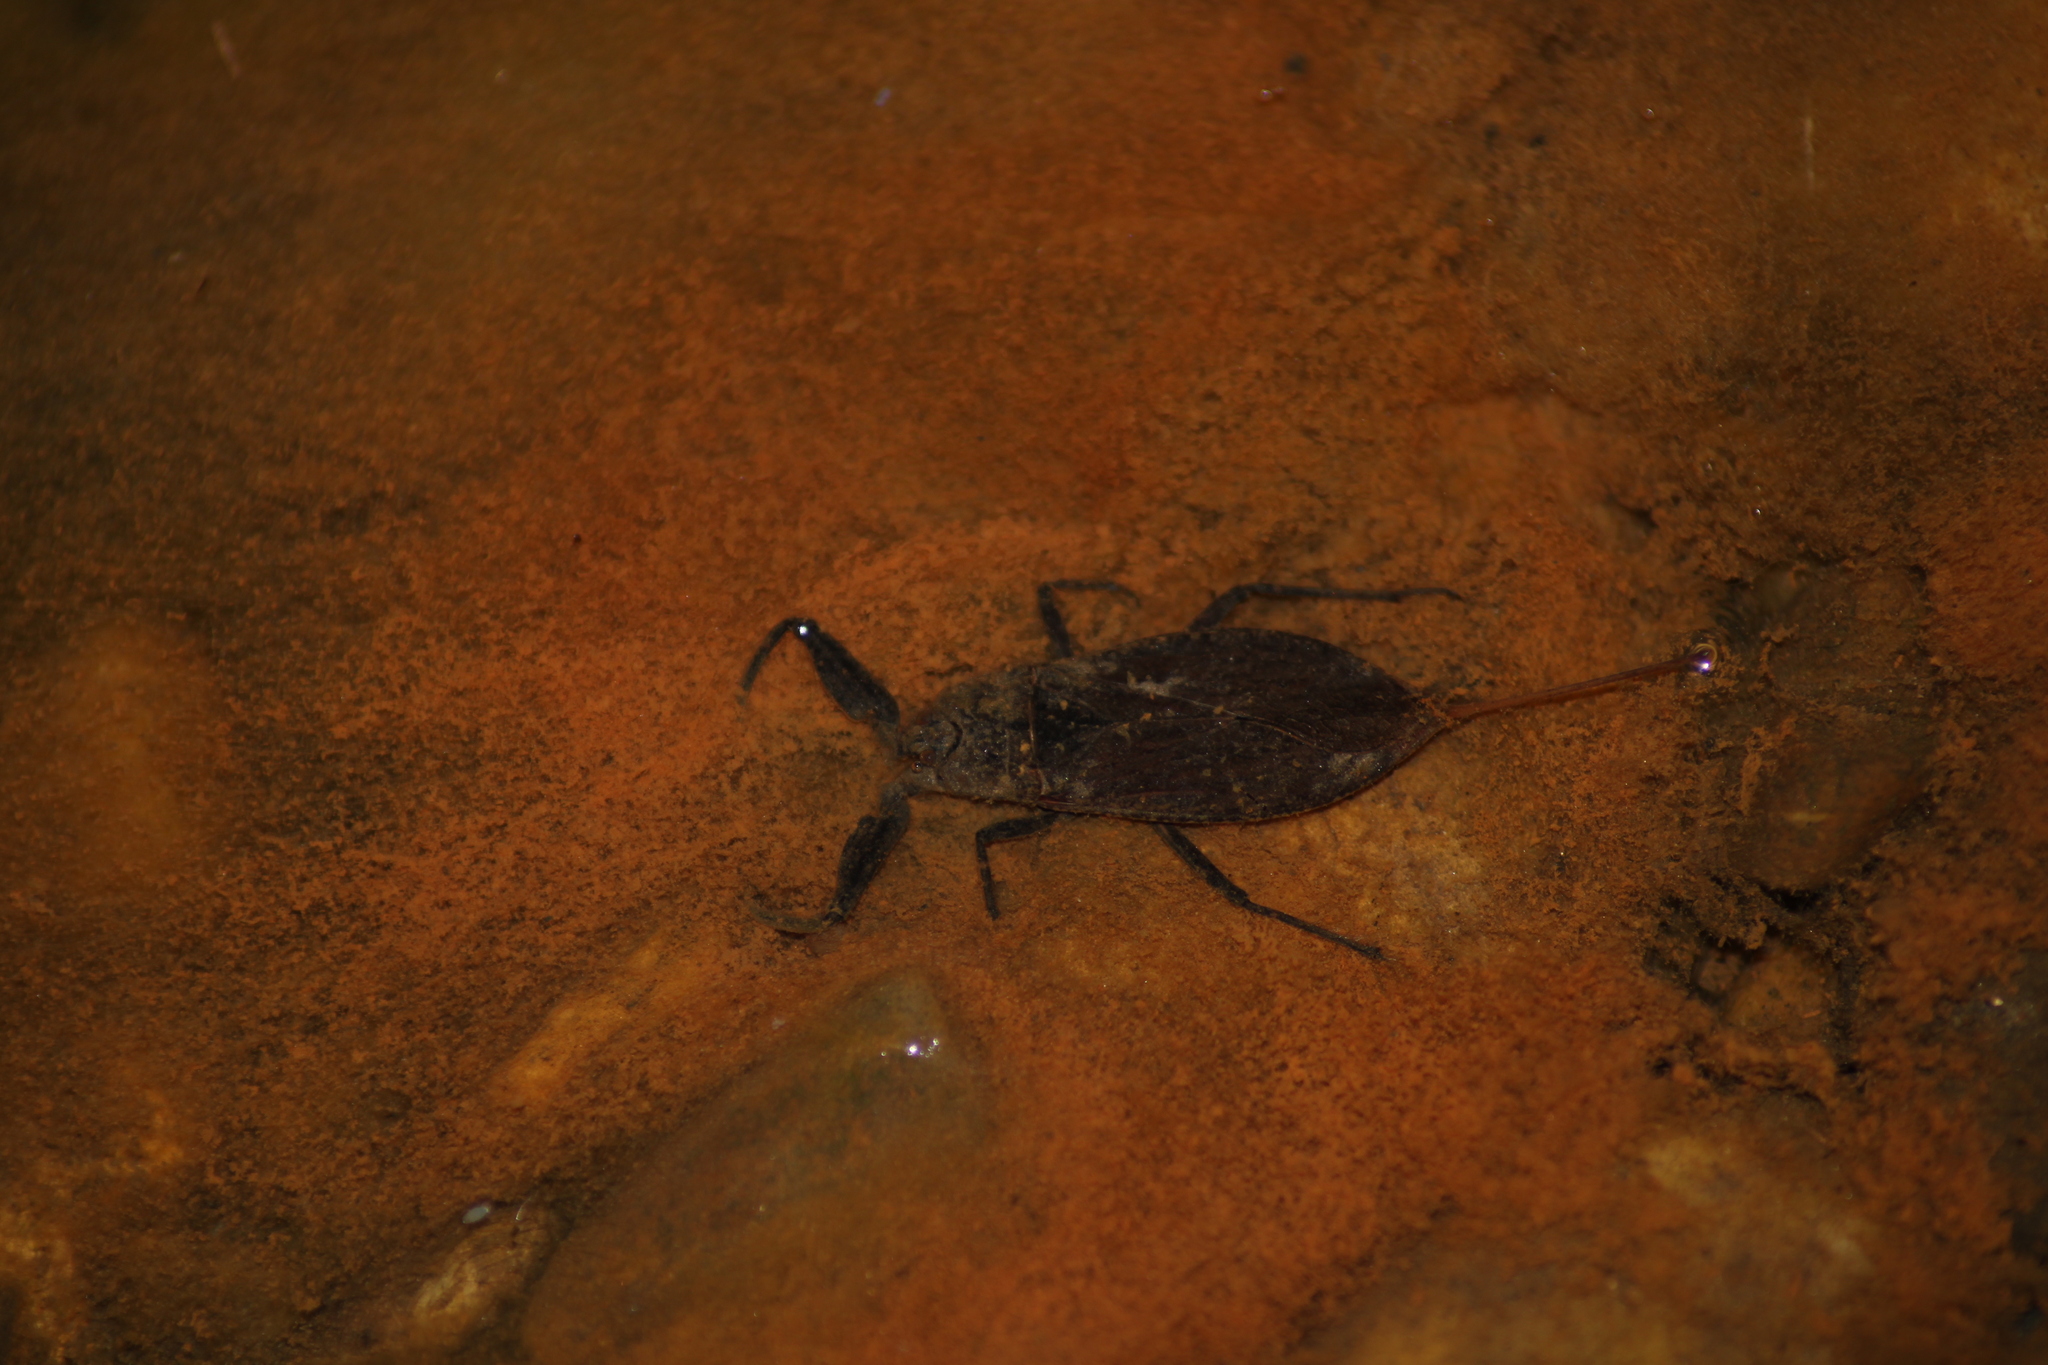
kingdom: Animalia
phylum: Arthropoda
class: Insecta
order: Hemiptera
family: Nepidae
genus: Nepa
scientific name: Nepa cinerea
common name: Water scorpion
